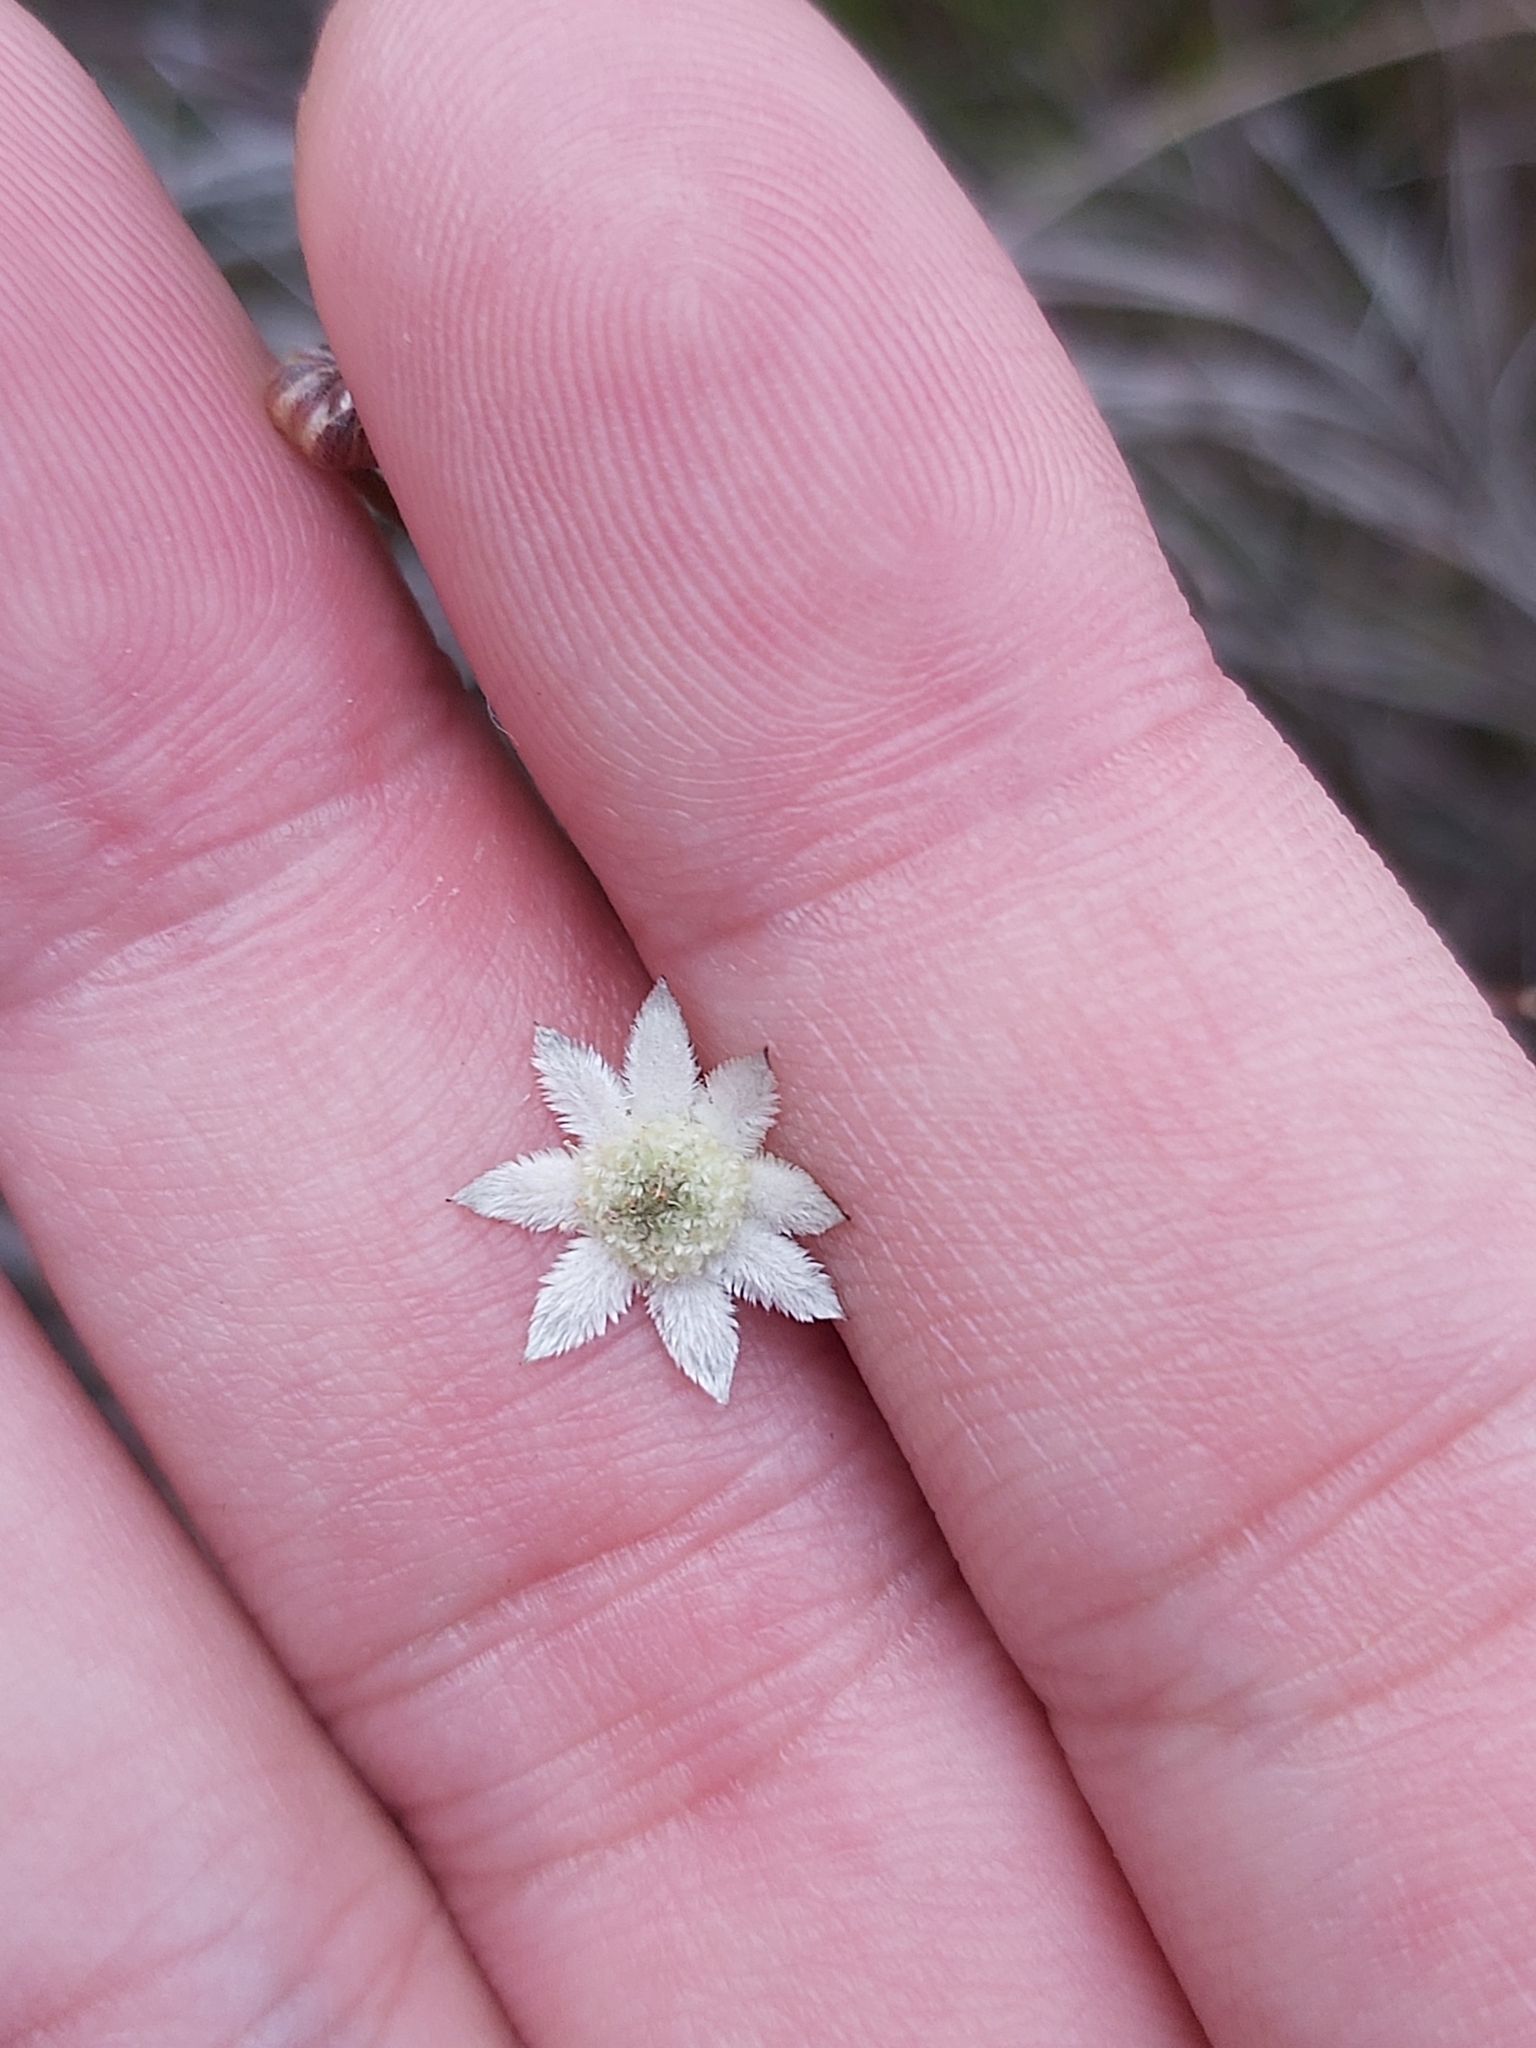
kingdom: Plantae
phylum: Tracheophyta
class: Magnoliopsida
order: Apiales
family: Apiaceae
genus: Actinotus
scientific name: Actinotus minor
